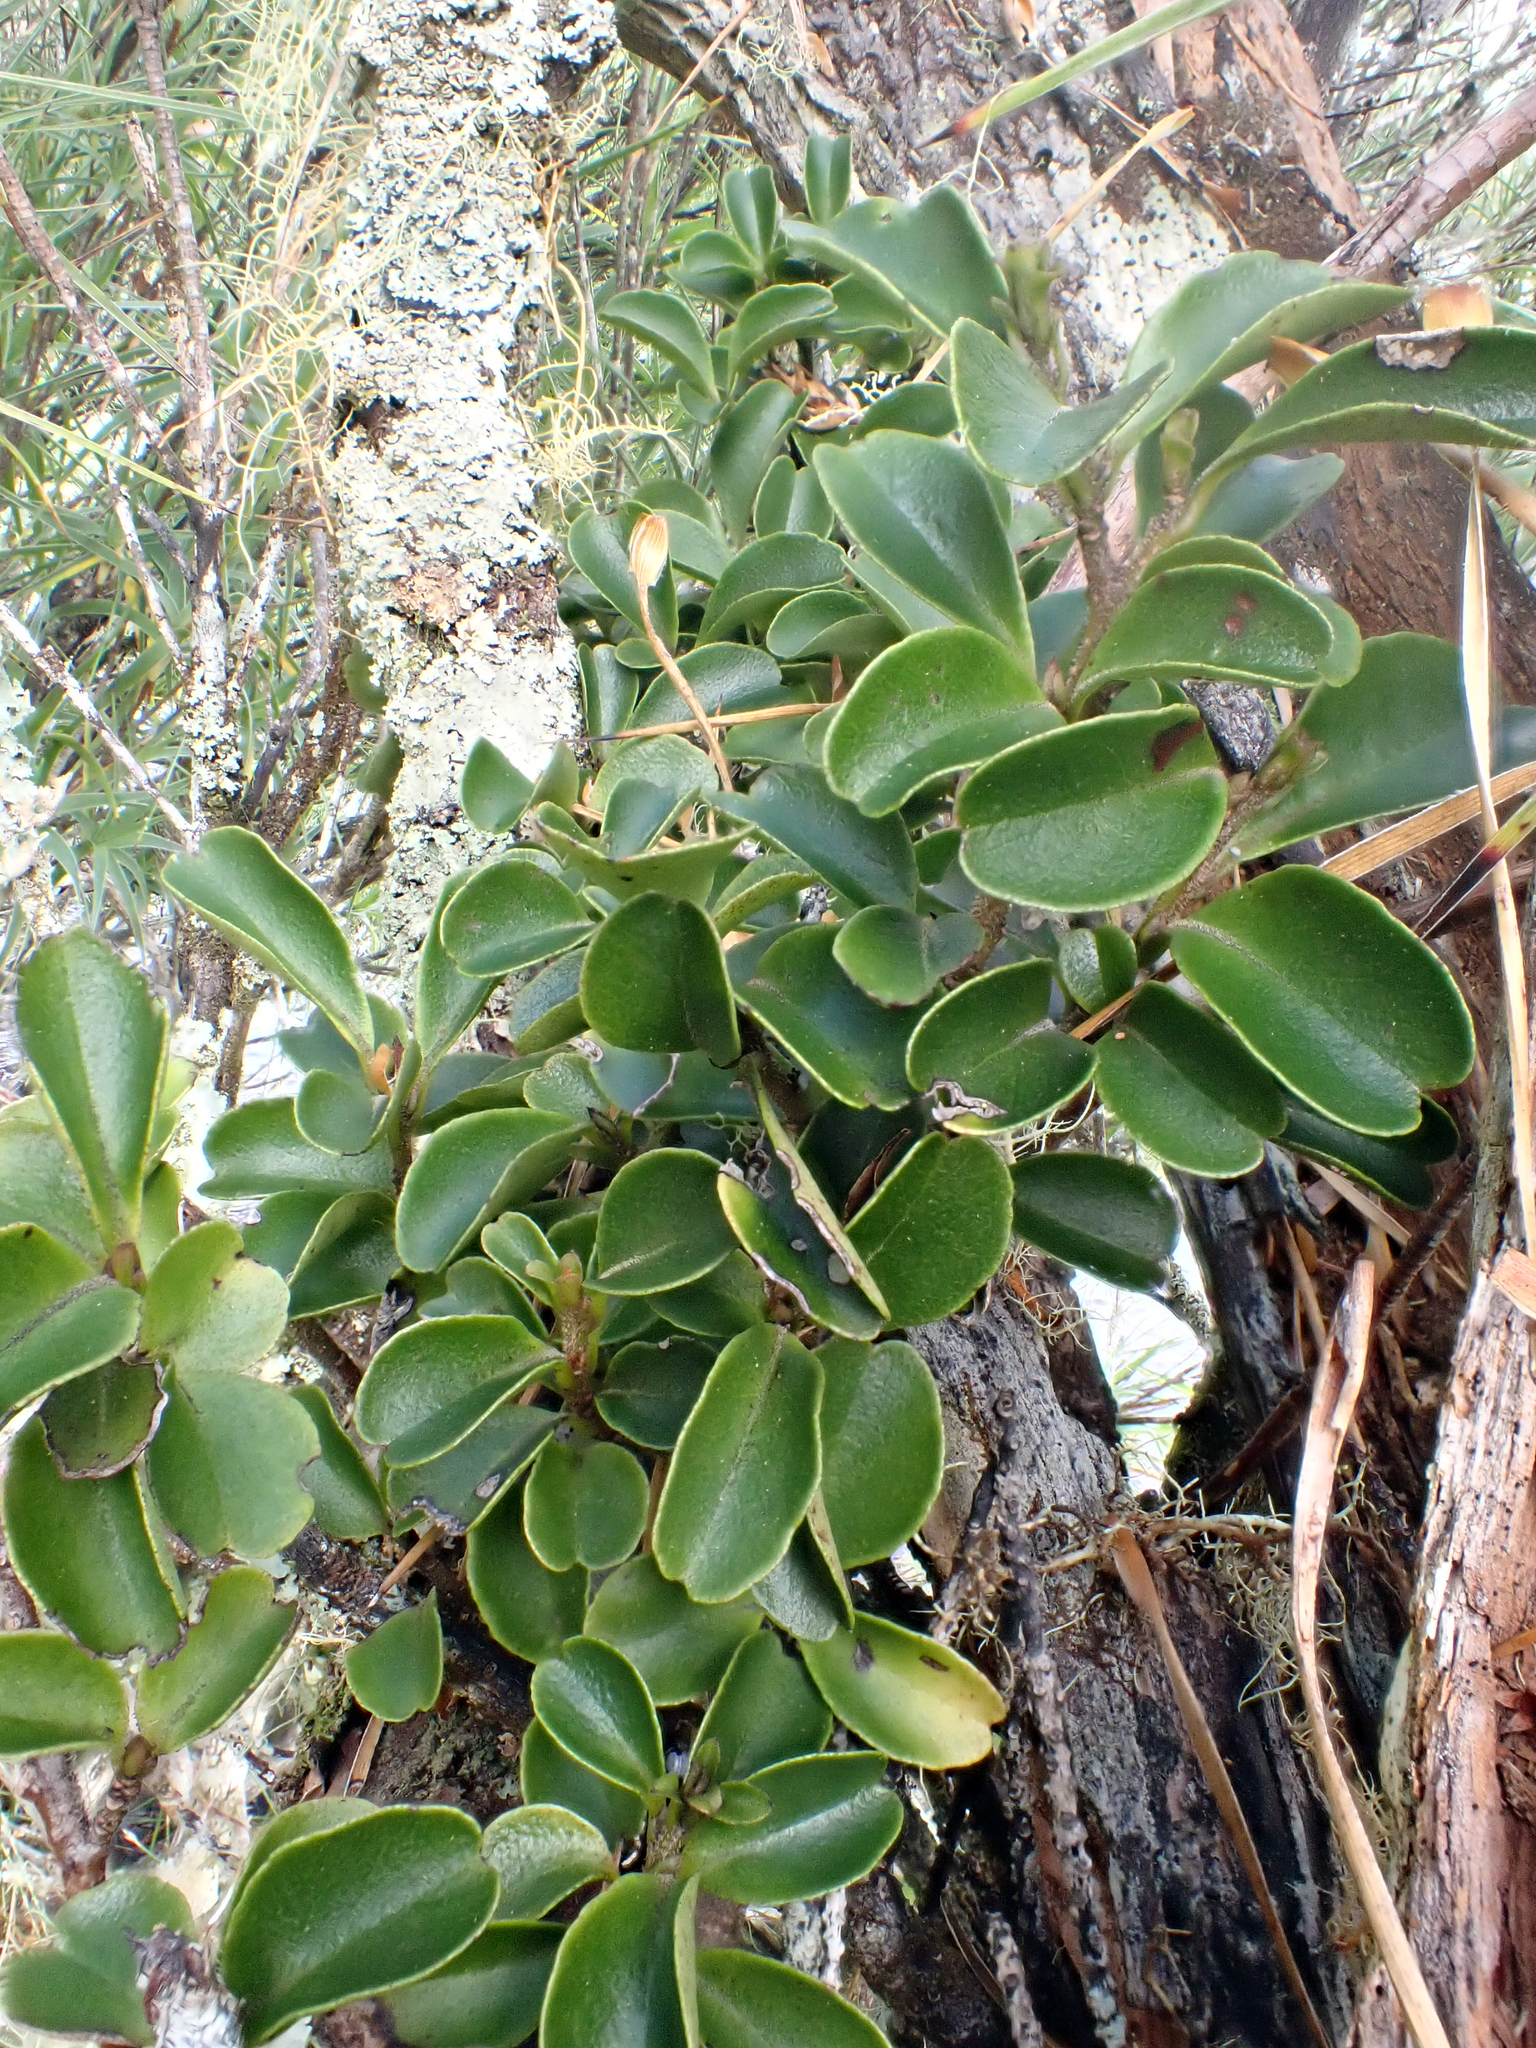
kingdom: Plantae
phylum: Tracheophyta
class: Magnoliopsida
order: Ericales
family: Primulaceae
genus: Myrsine
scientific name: Myrsine coxii
